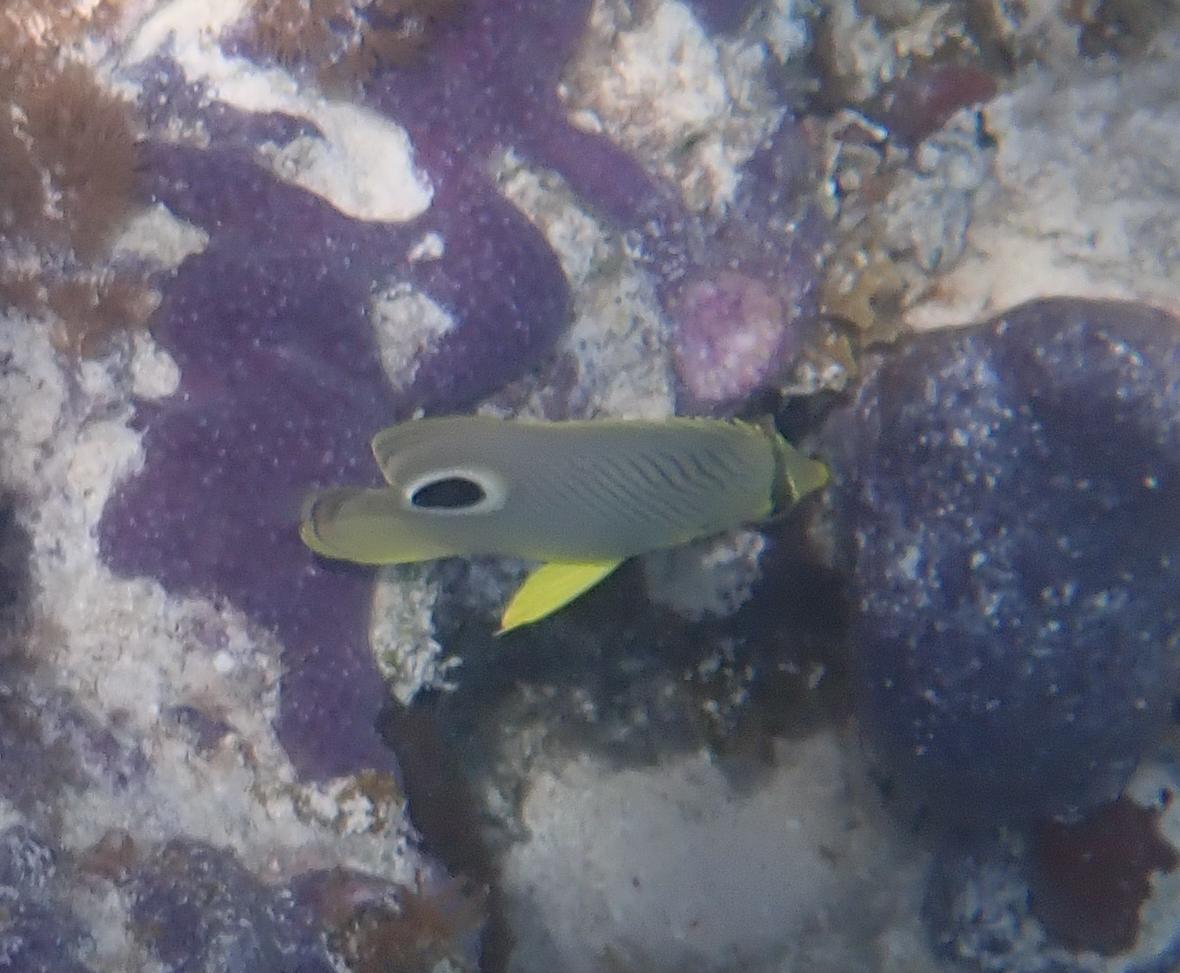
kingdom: Animalia
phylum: Chordata
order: Perciformes
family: Chaetodontidae
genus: Chaetodon
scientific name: Chaetodon capistratus
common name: Kete
